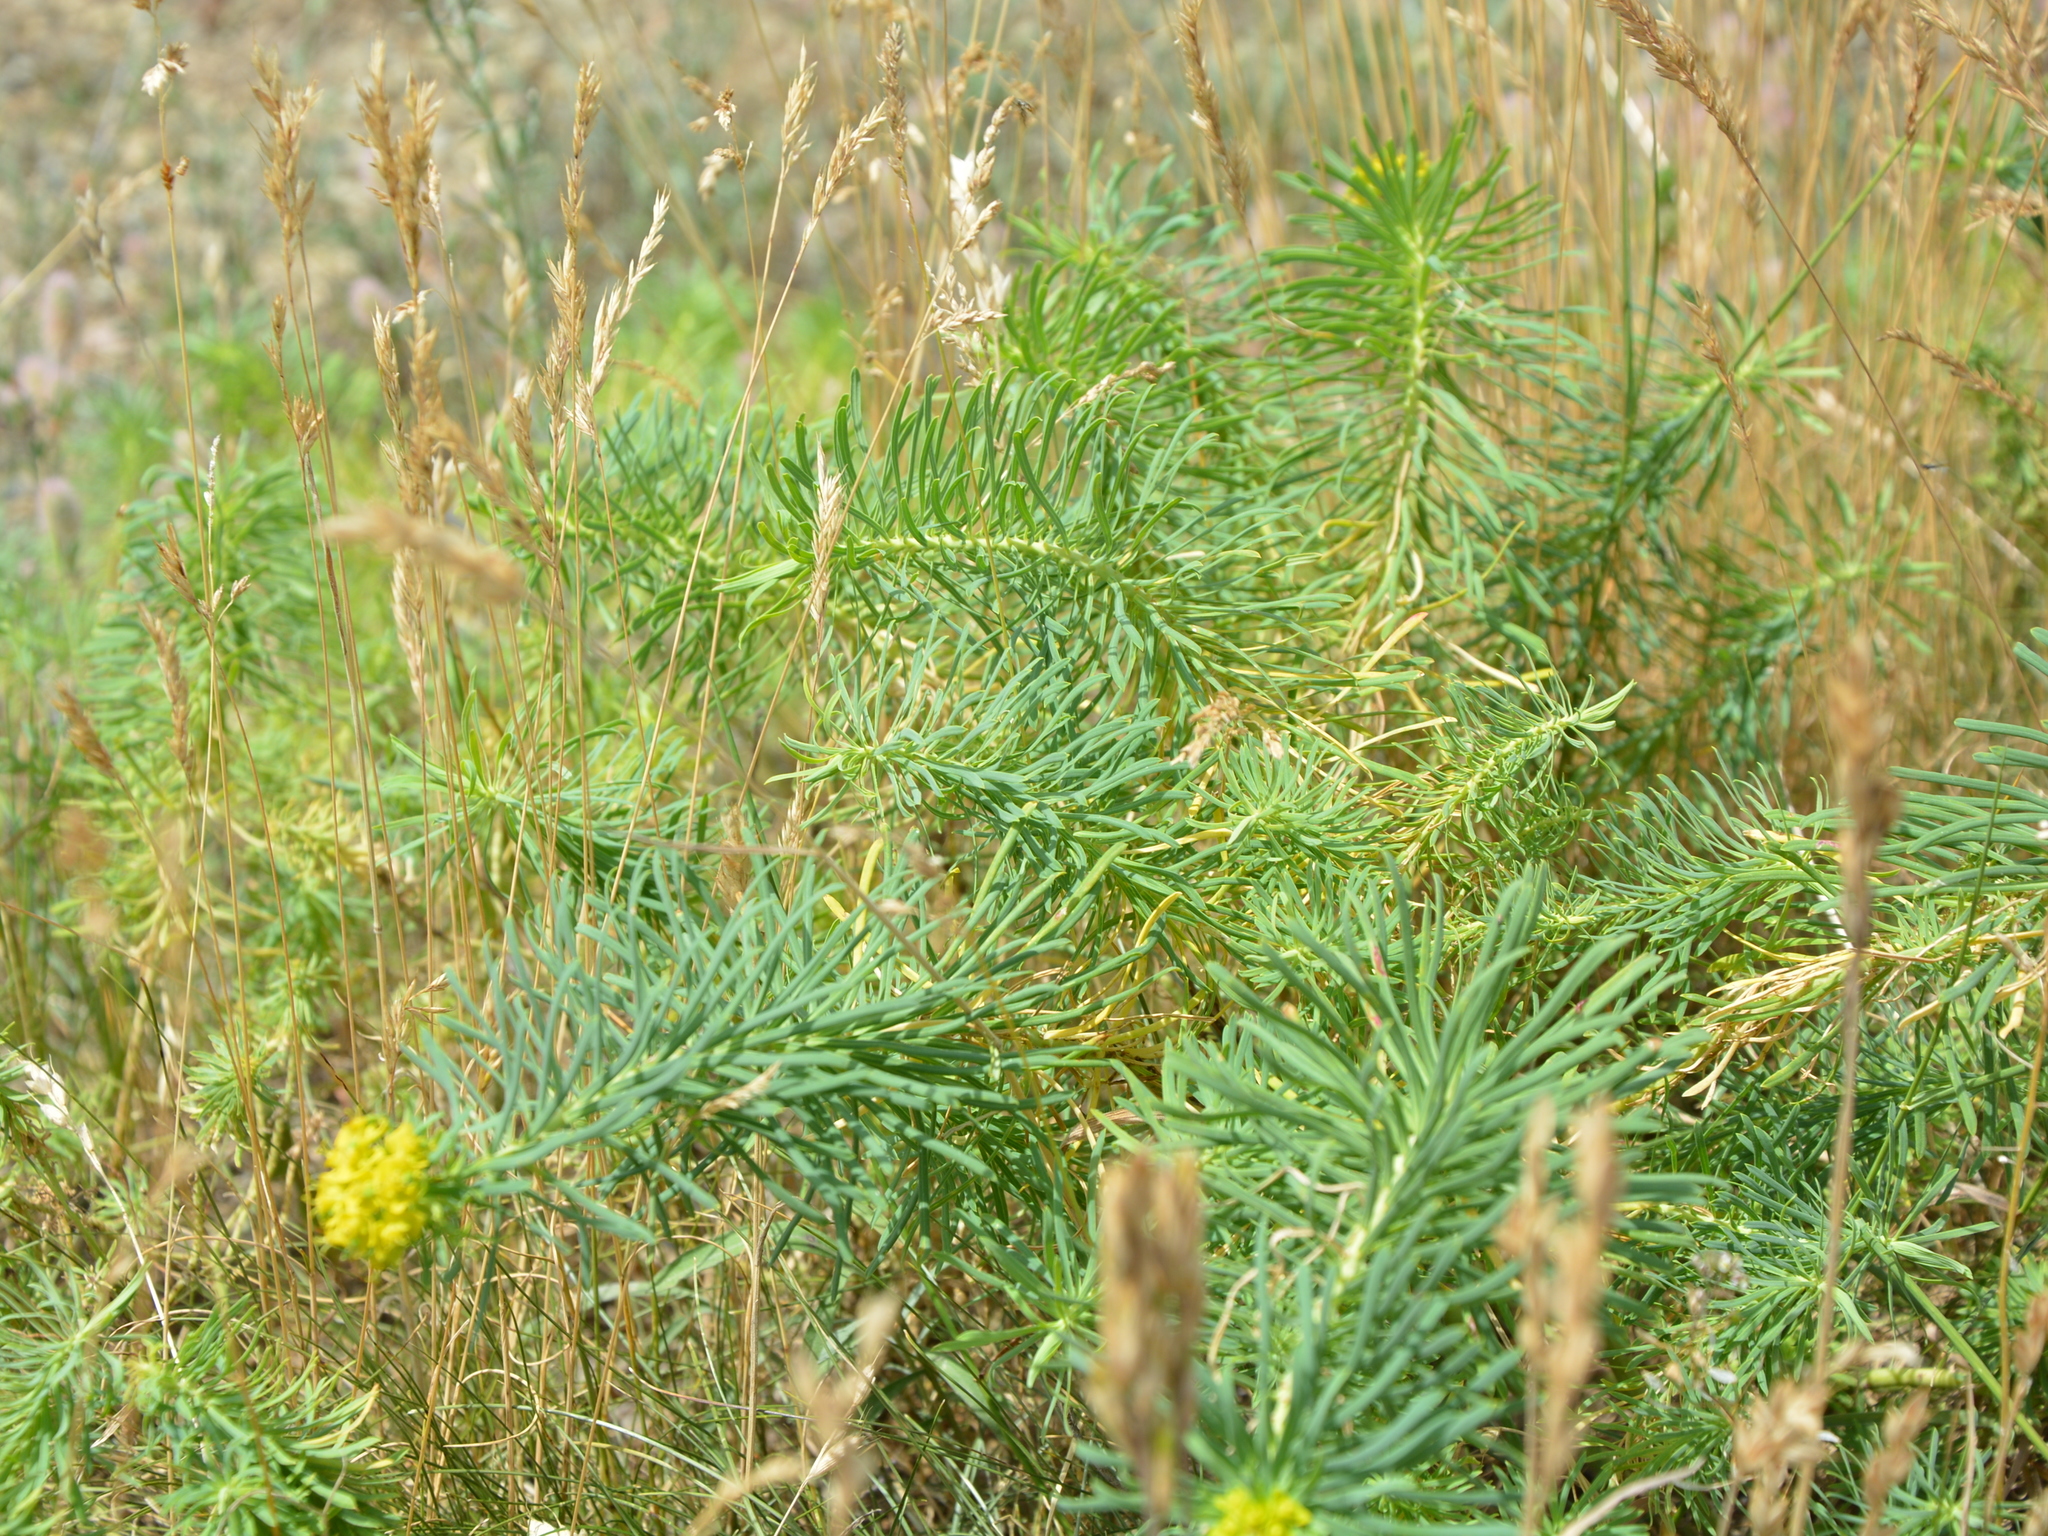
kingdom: Plantae
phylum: Tracheophyta
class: Magnoliopsida
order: Malpighiales
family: Euphorbiaceae
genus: Euphorbia
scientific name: Euphorbia cyparissias
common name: Cypress spurge
